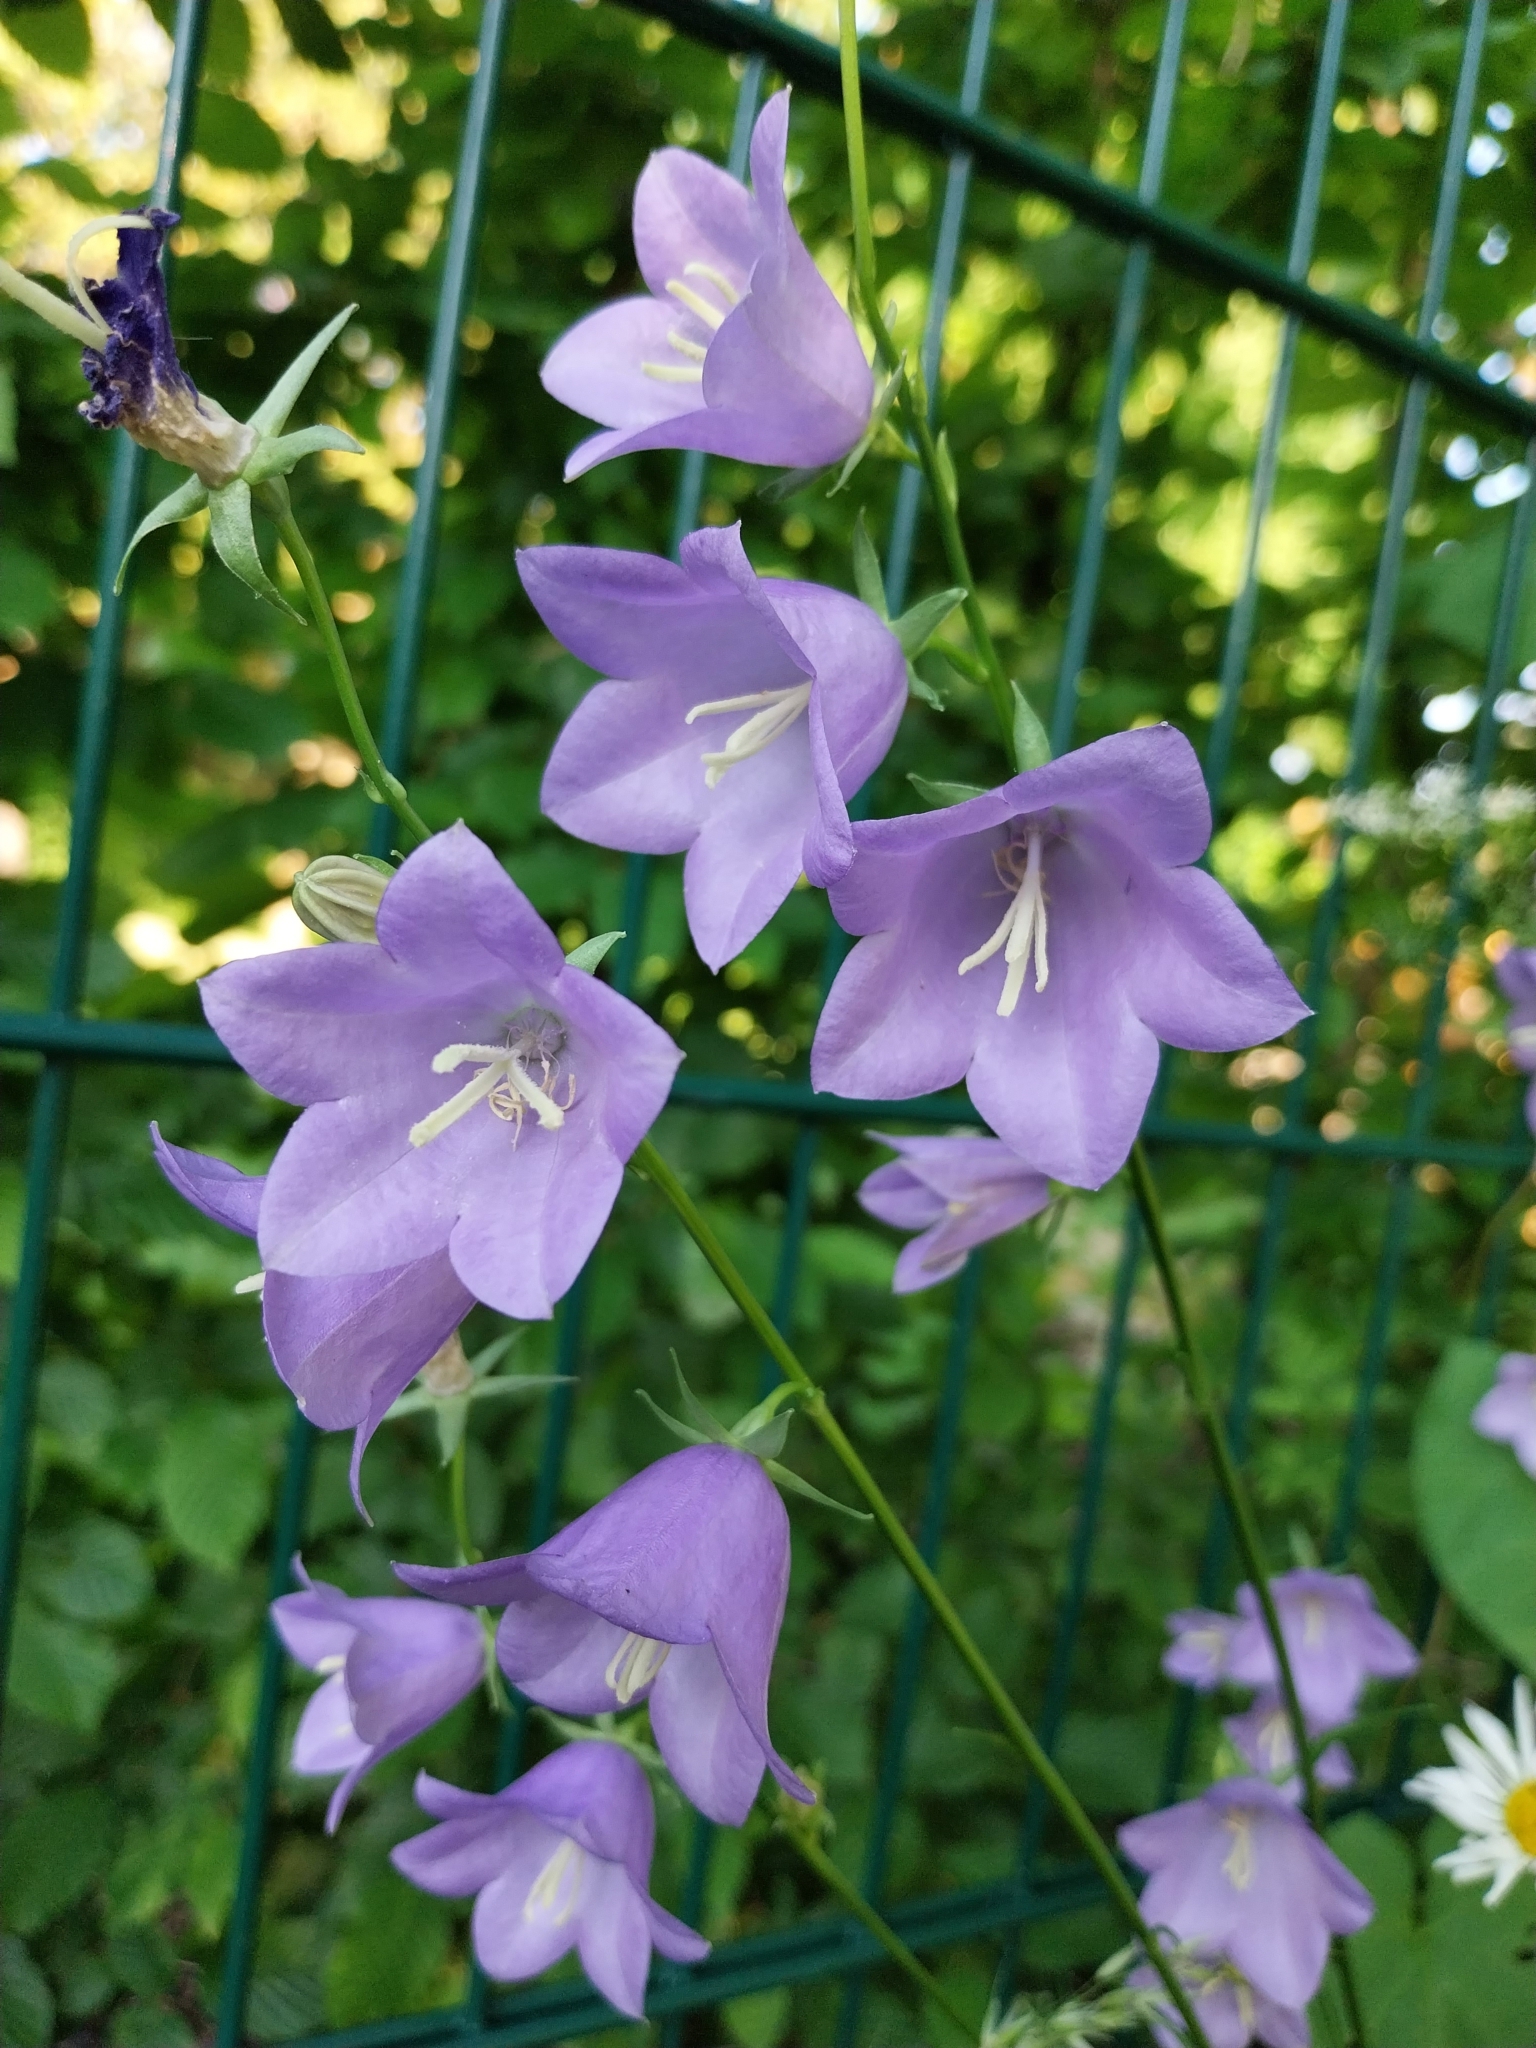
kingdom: Plantae
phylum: Tracheophyta
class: Magnoliopsida
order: Asterales
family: Campanulaceae
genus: Campanula
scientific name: Campanula persicifolia
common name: Peach-leaved bellflower
